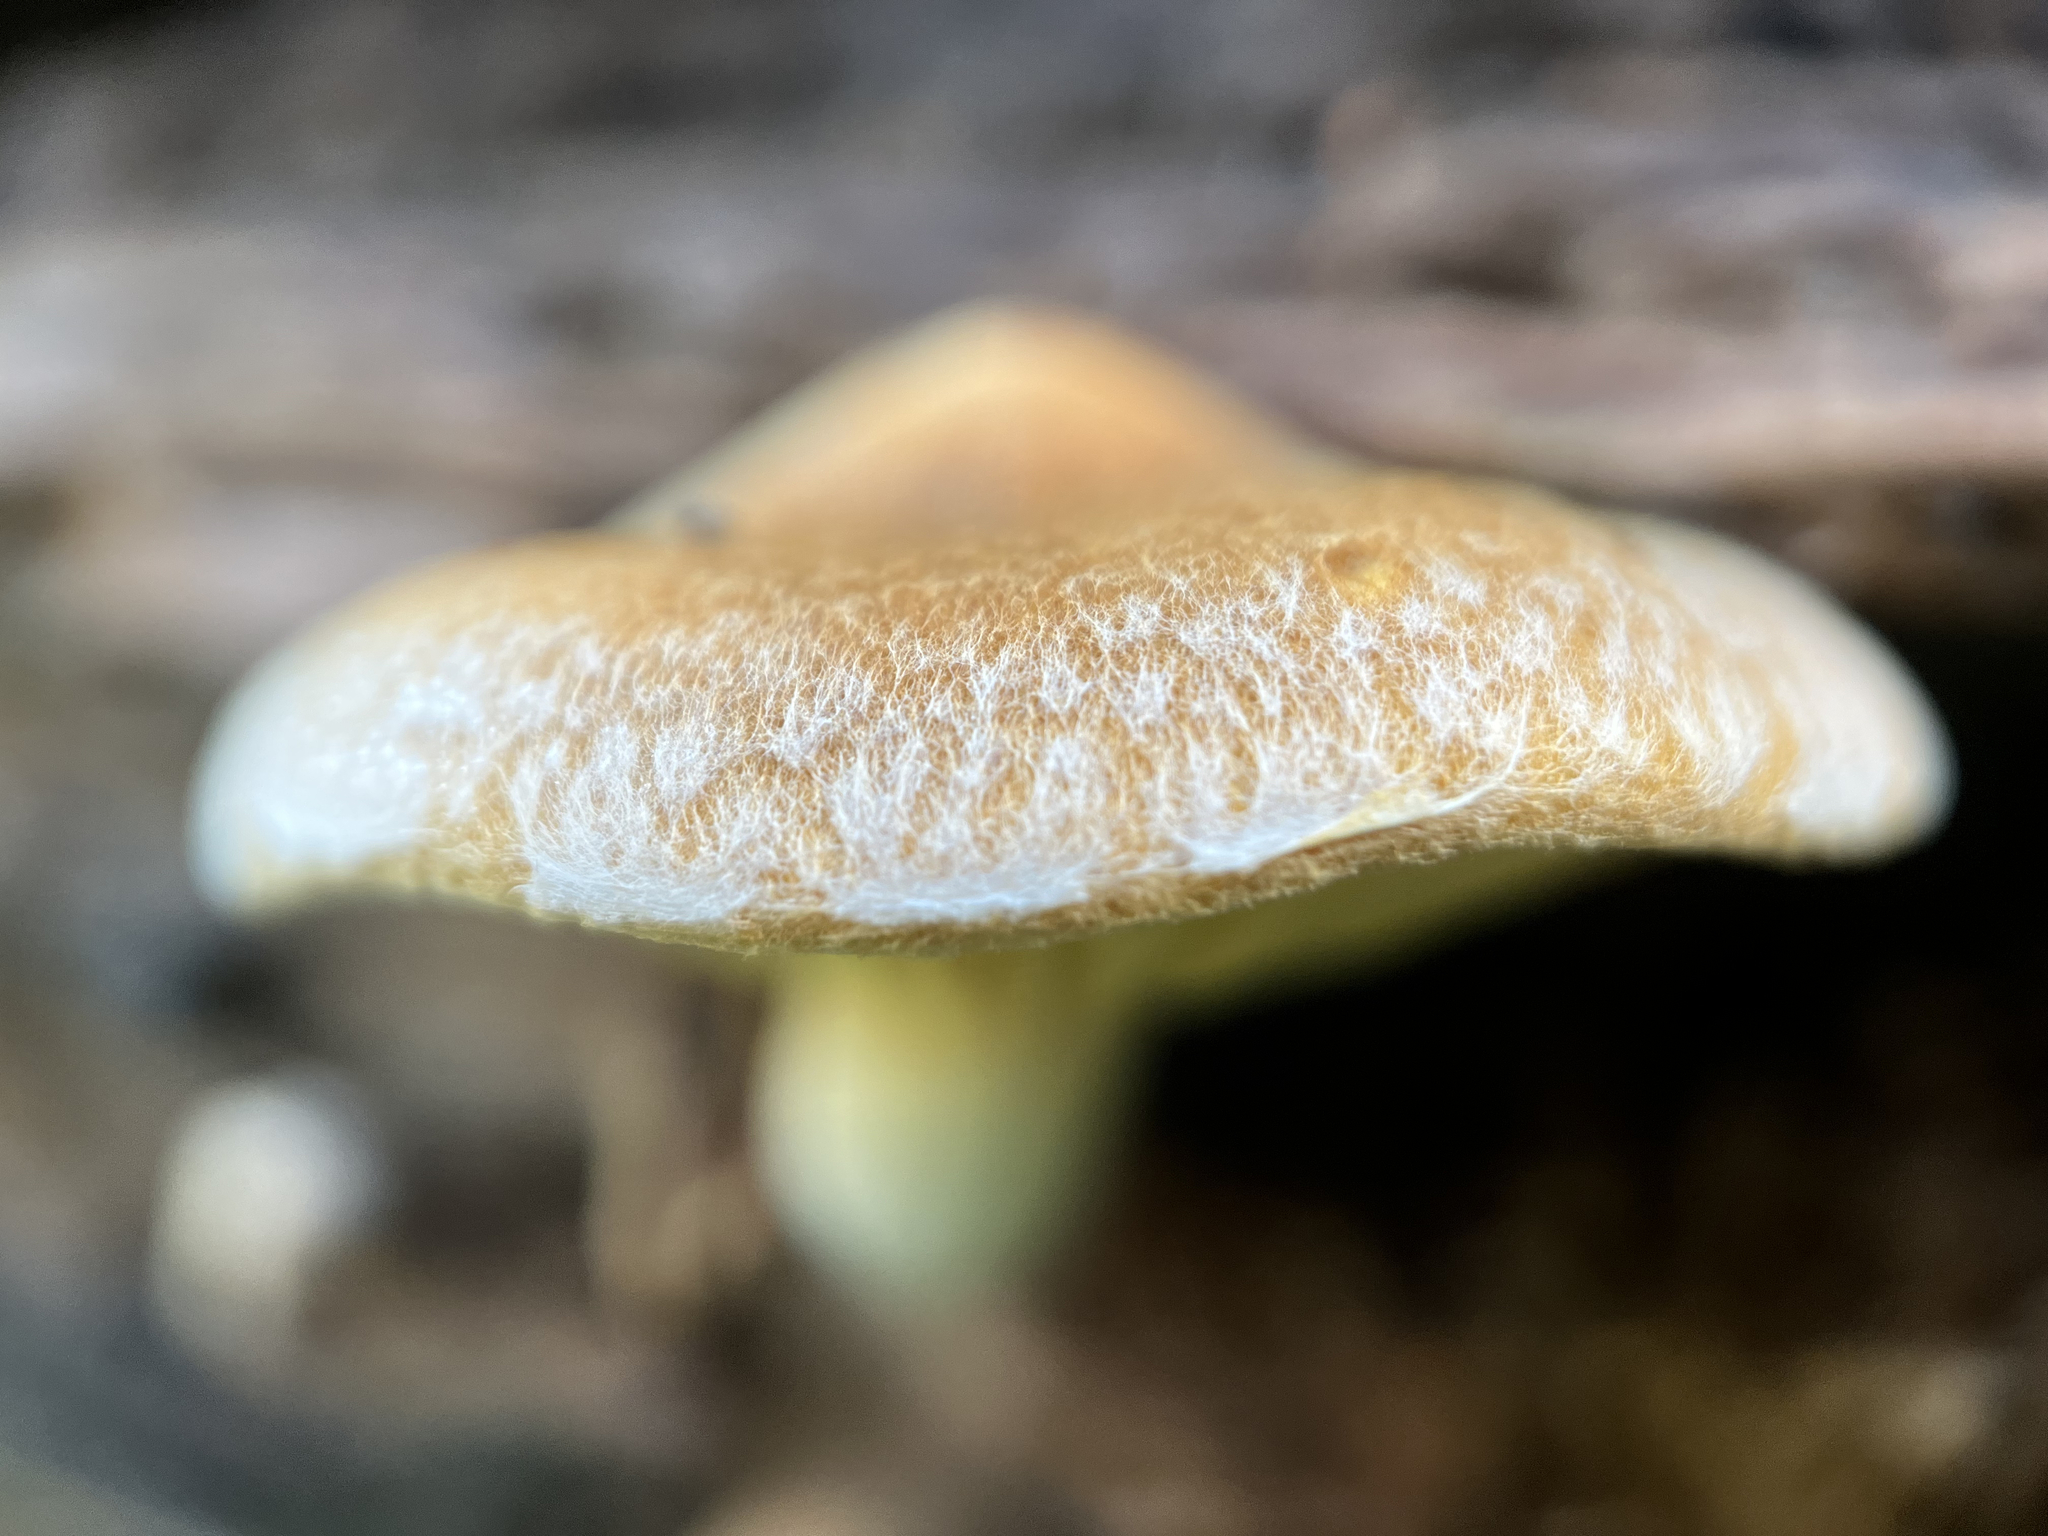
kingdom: Fungi
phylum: Basidiomycota
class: Agaricomycetes
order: Agaricales
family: Hymenogastraceae
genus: Gymnopilus
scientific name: Gymnopilus allantopus
